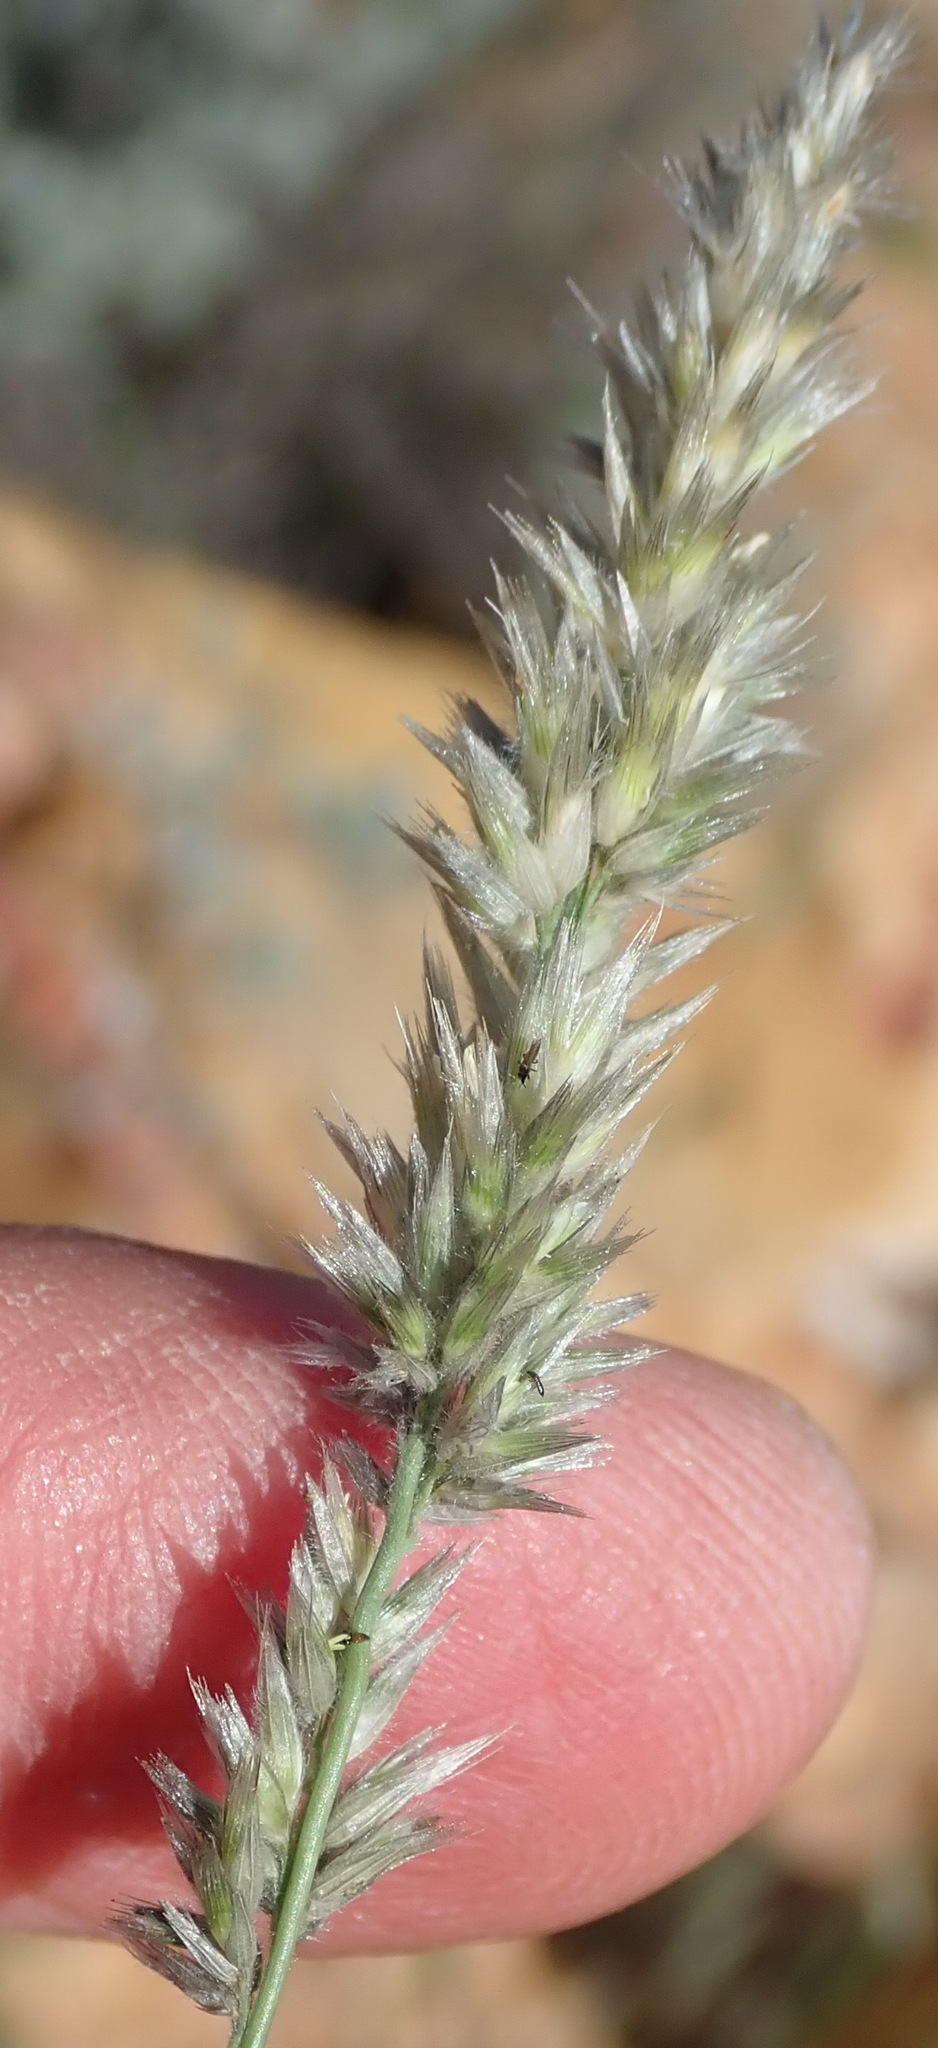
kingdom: Plantae
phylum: Tracheophyta
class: Liliopsida
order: Poales
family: Poaceae
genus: Enneapogon
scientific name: Enneapogon scoparius
